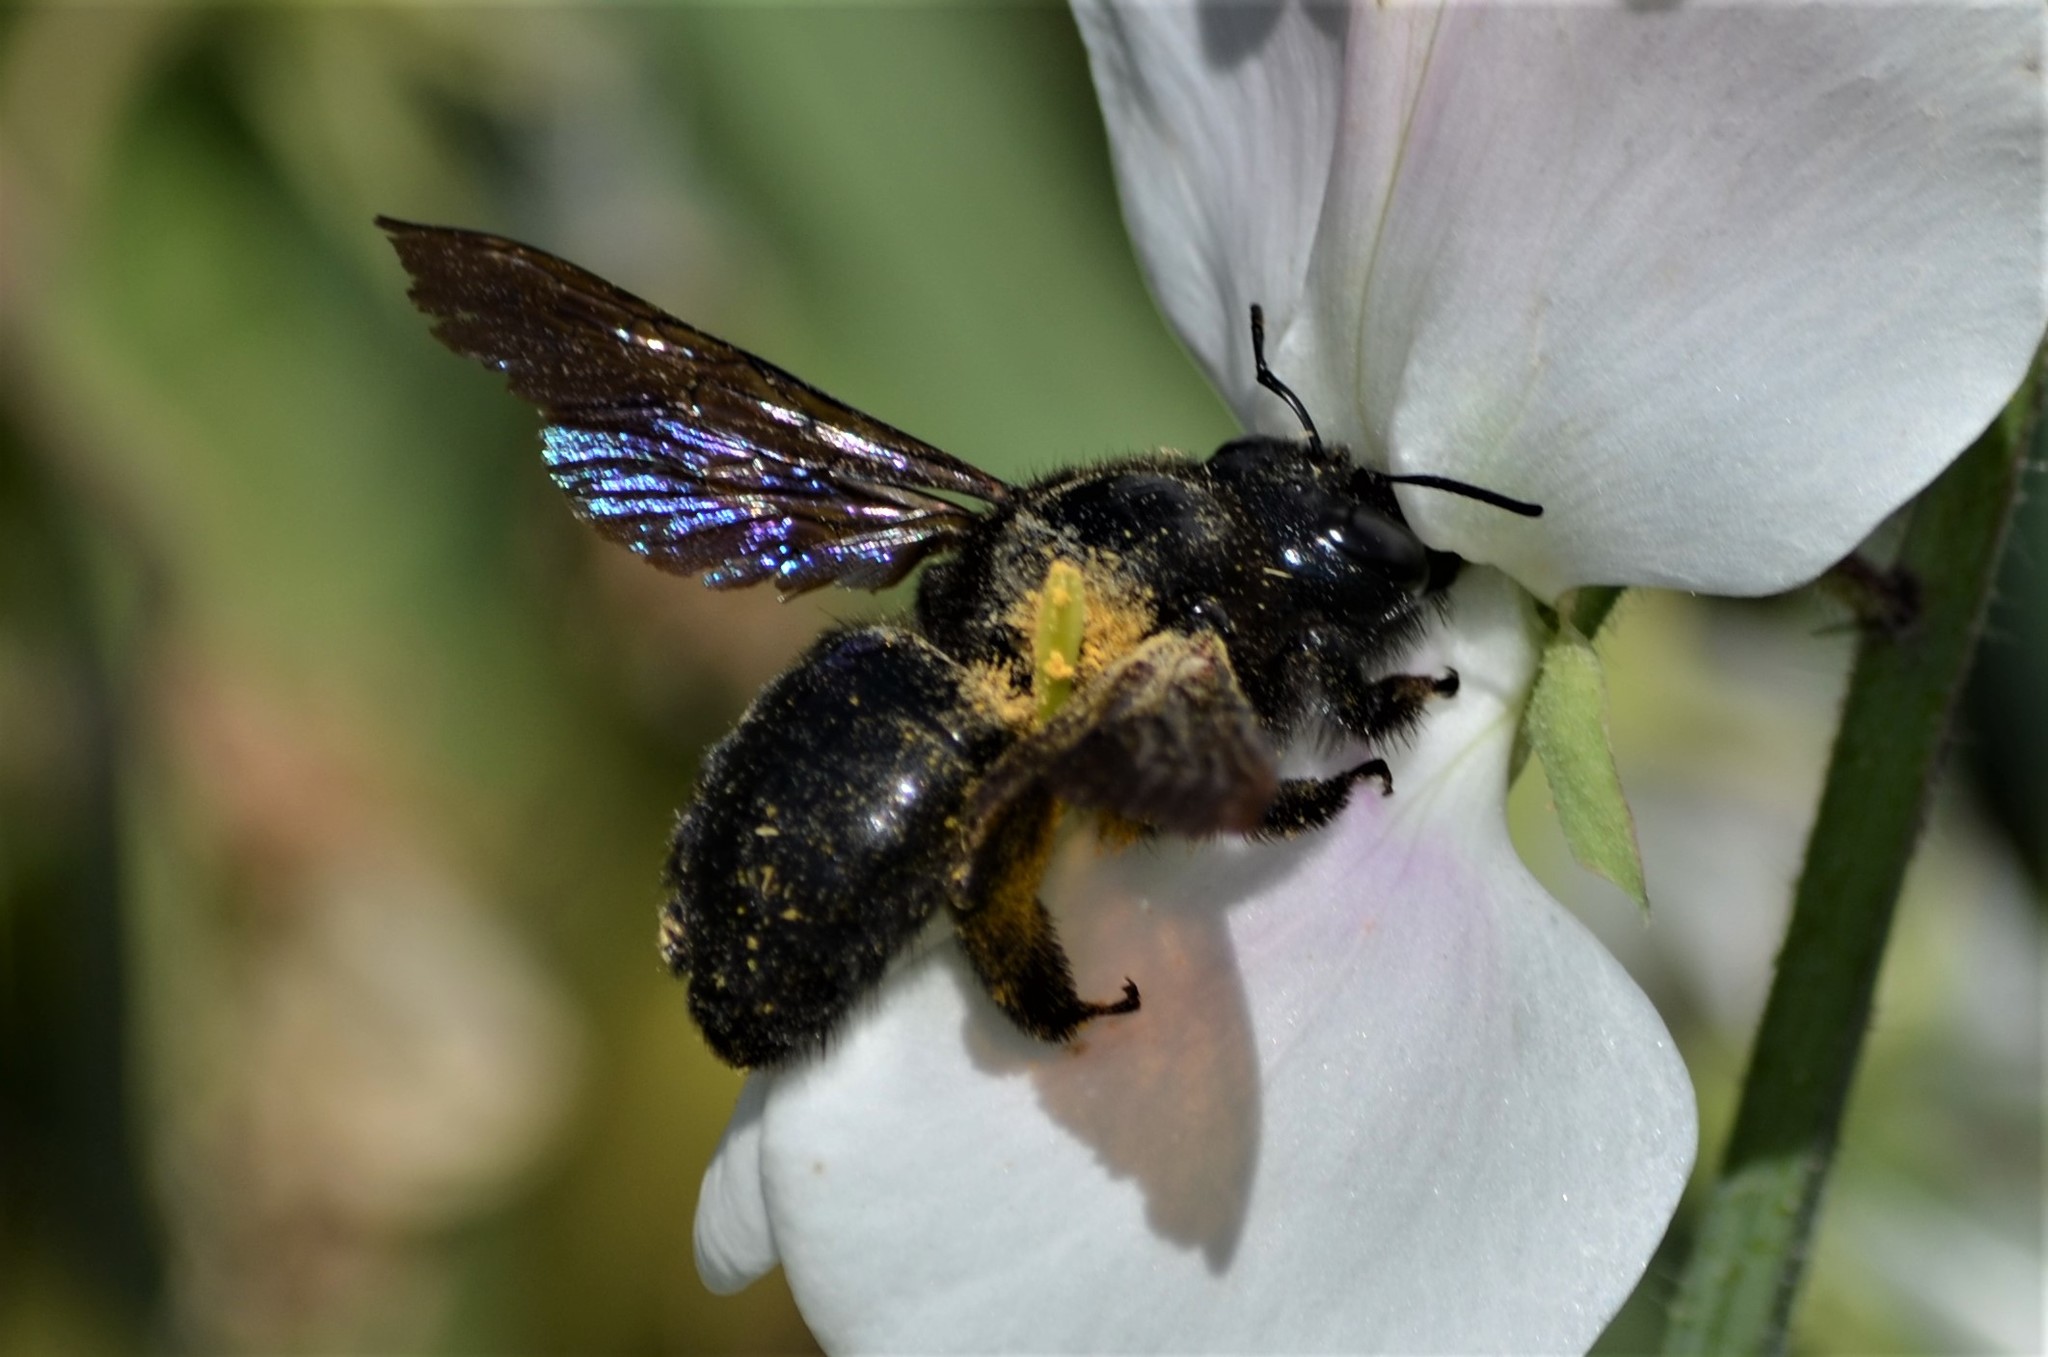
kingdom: Animalia
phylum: Arthropoda
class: Insecta
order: Hymenoptera
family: Apidae
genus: Xylocopa
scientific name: Xylocopa
